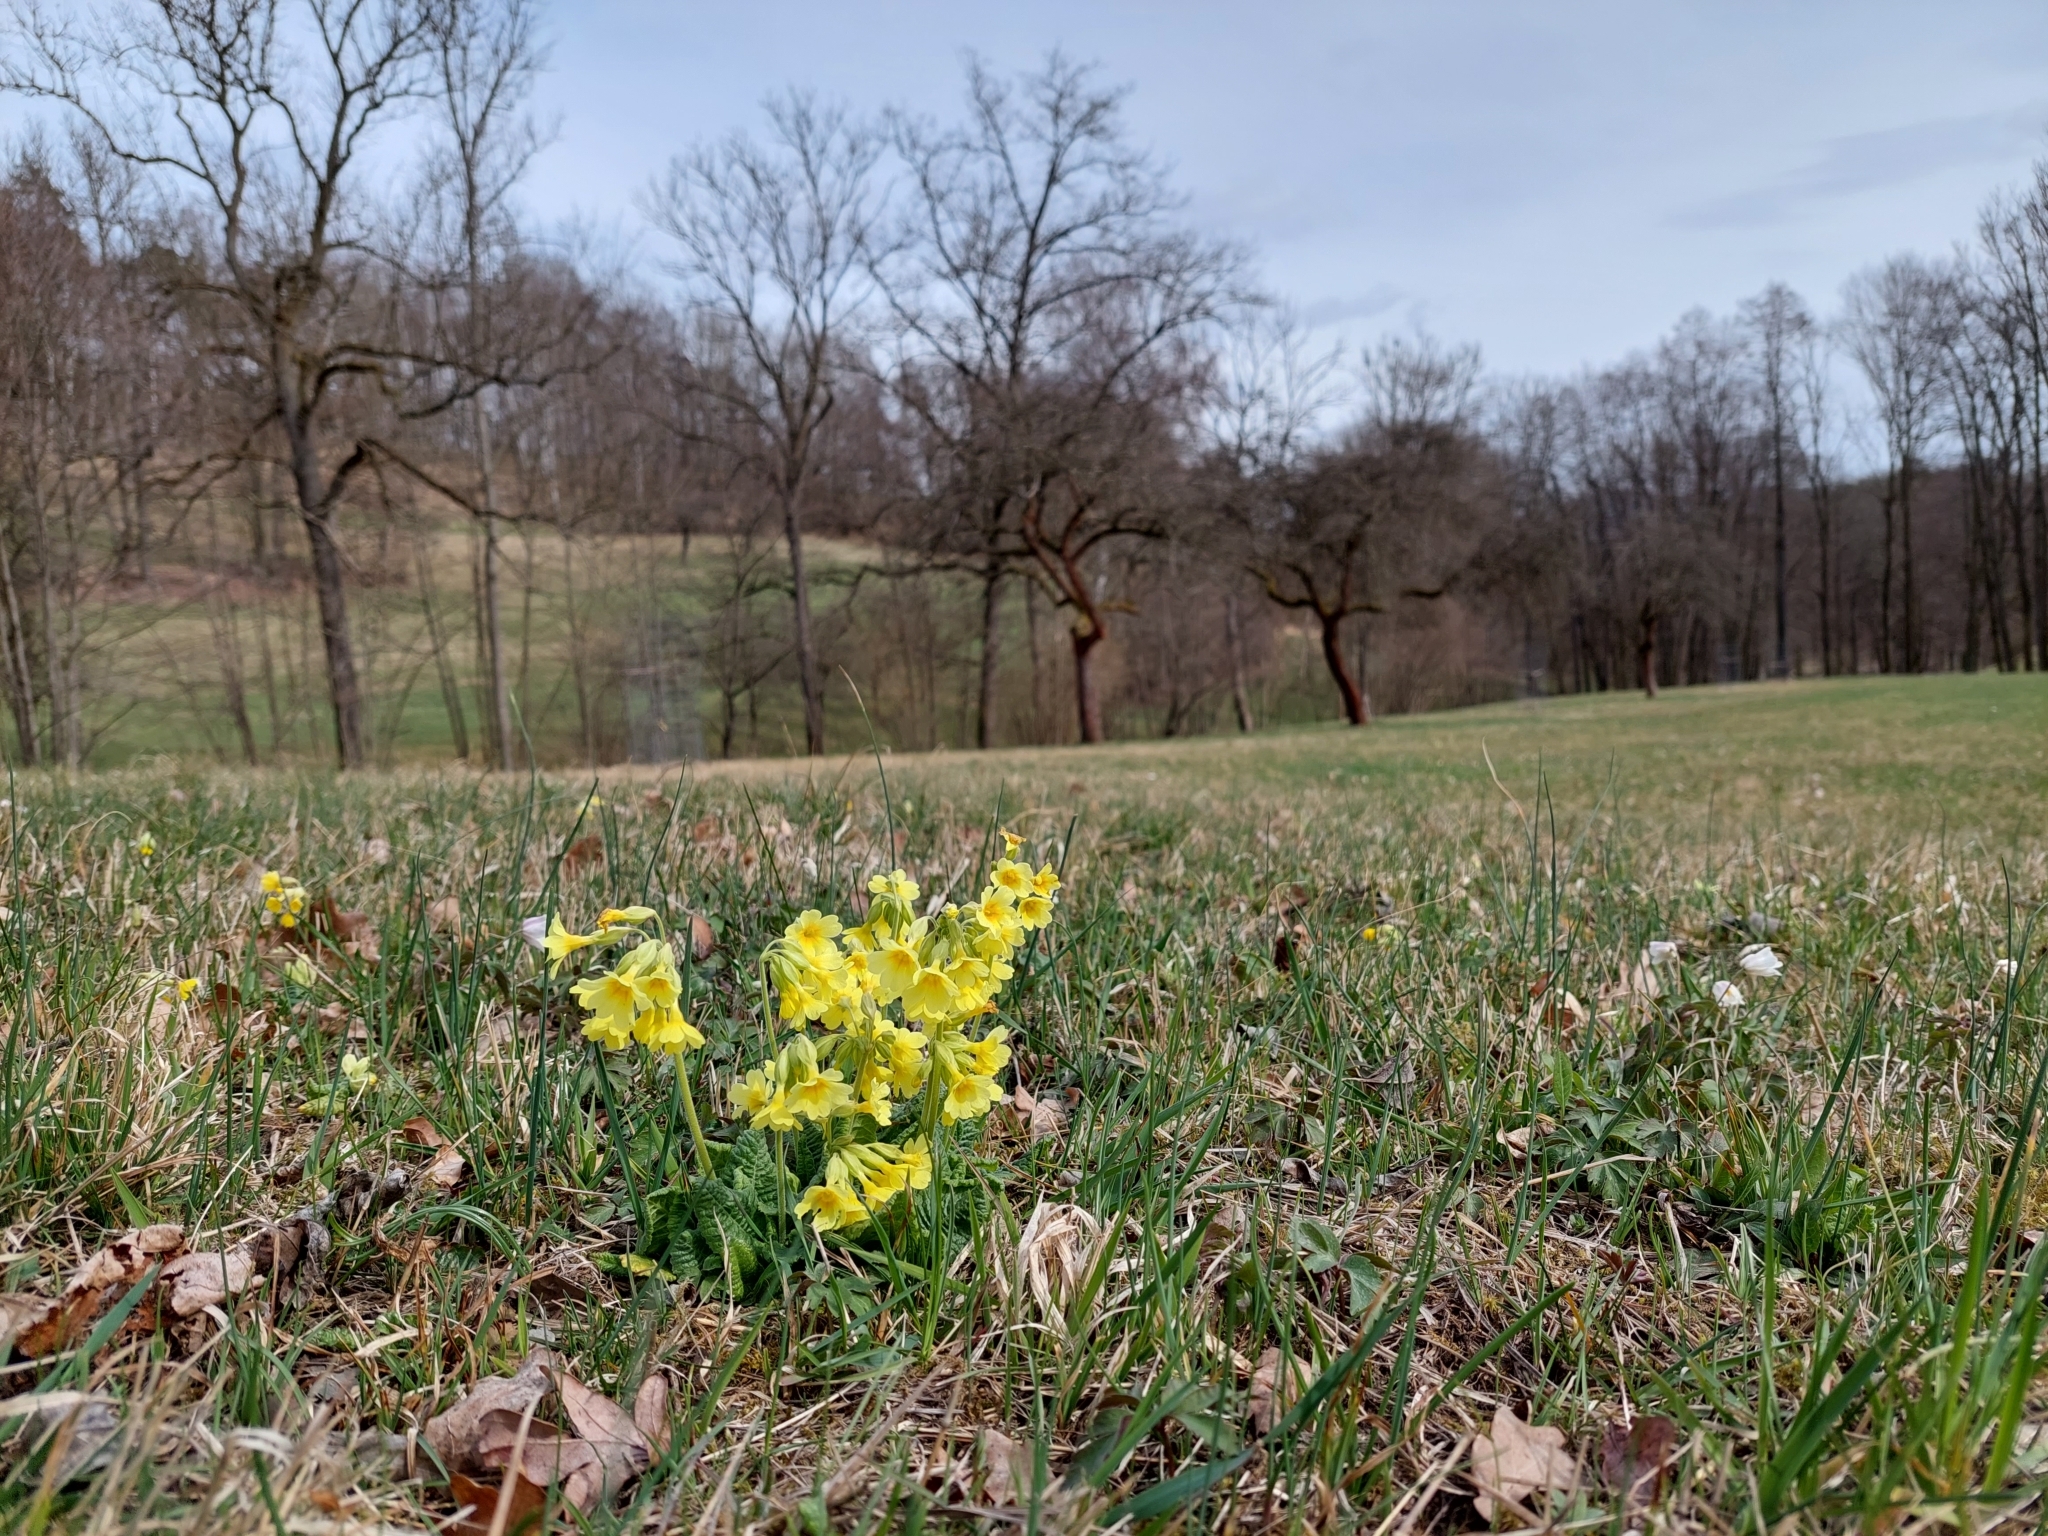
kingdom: Plantae
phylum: Tracheophyta
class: Magnoliopsida
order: Ericales
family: Primulaceae
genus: Primula
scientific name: Primula elatior
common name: Oxlip
